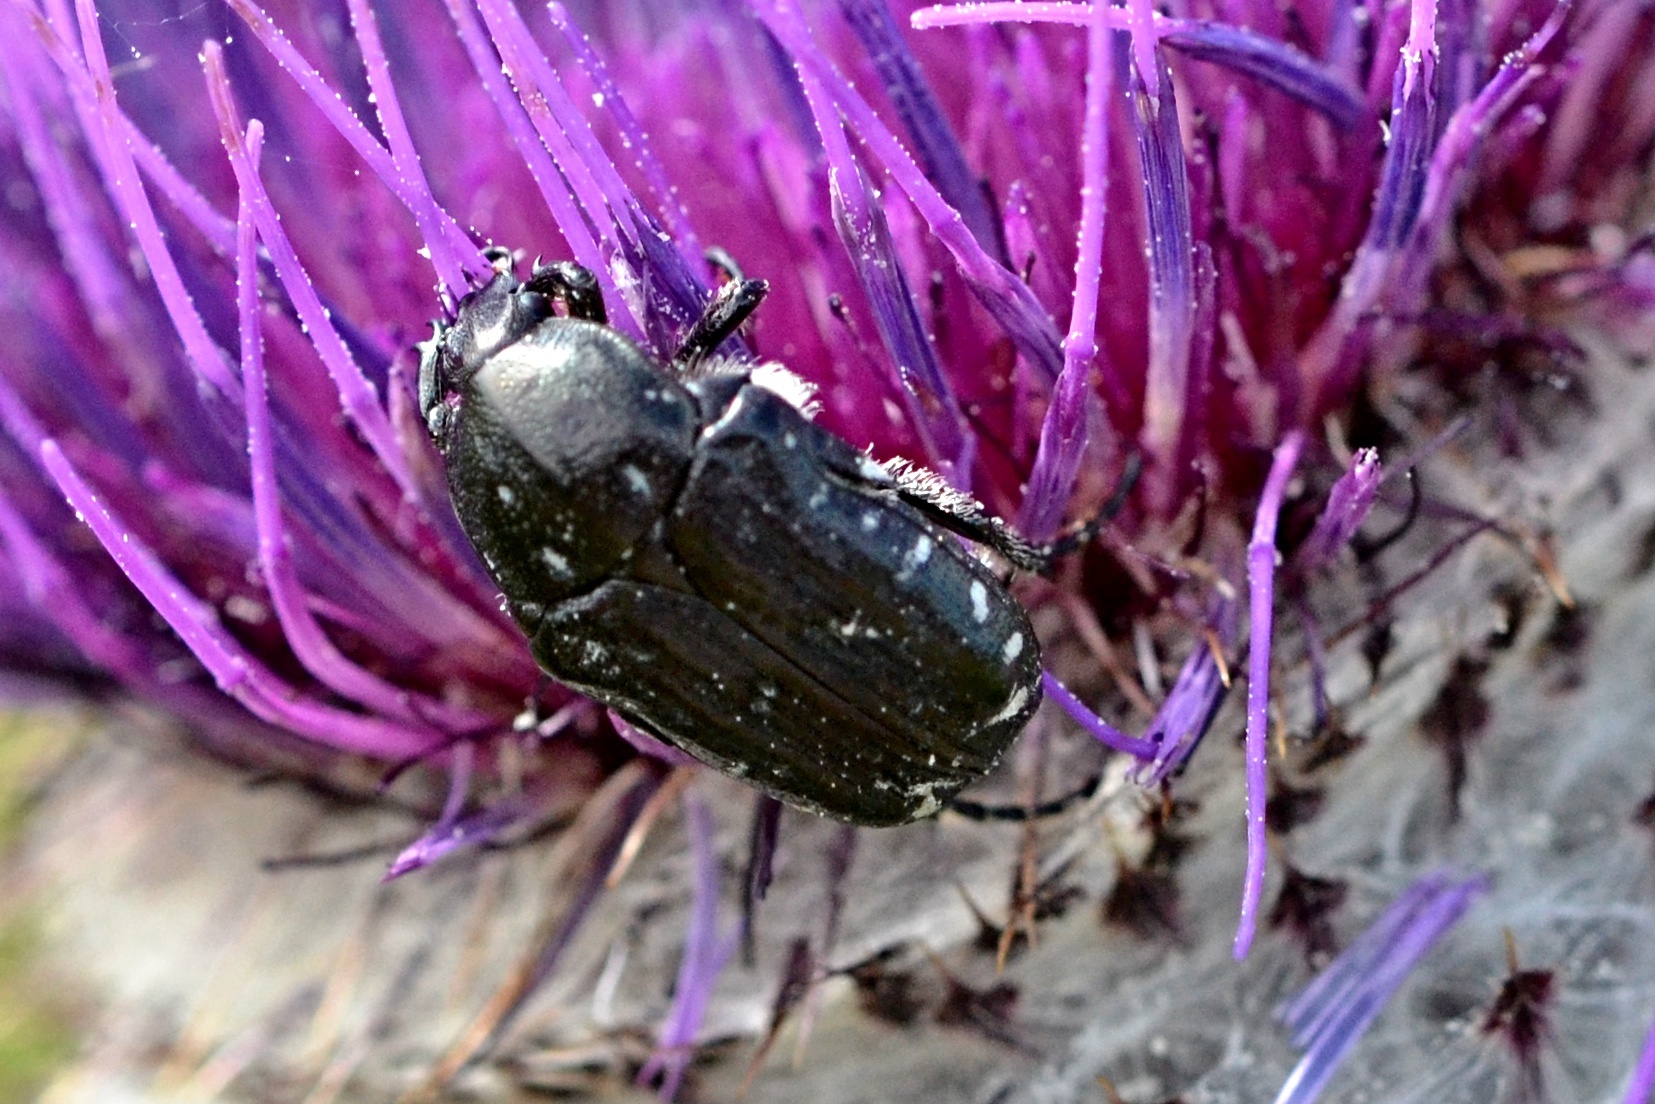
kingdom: Animalia
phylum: Arthropoda
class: Insecta
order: Coleoptera
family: Scarabaeidae
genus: Oxythyrea
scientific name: Oxythyrea funesta
